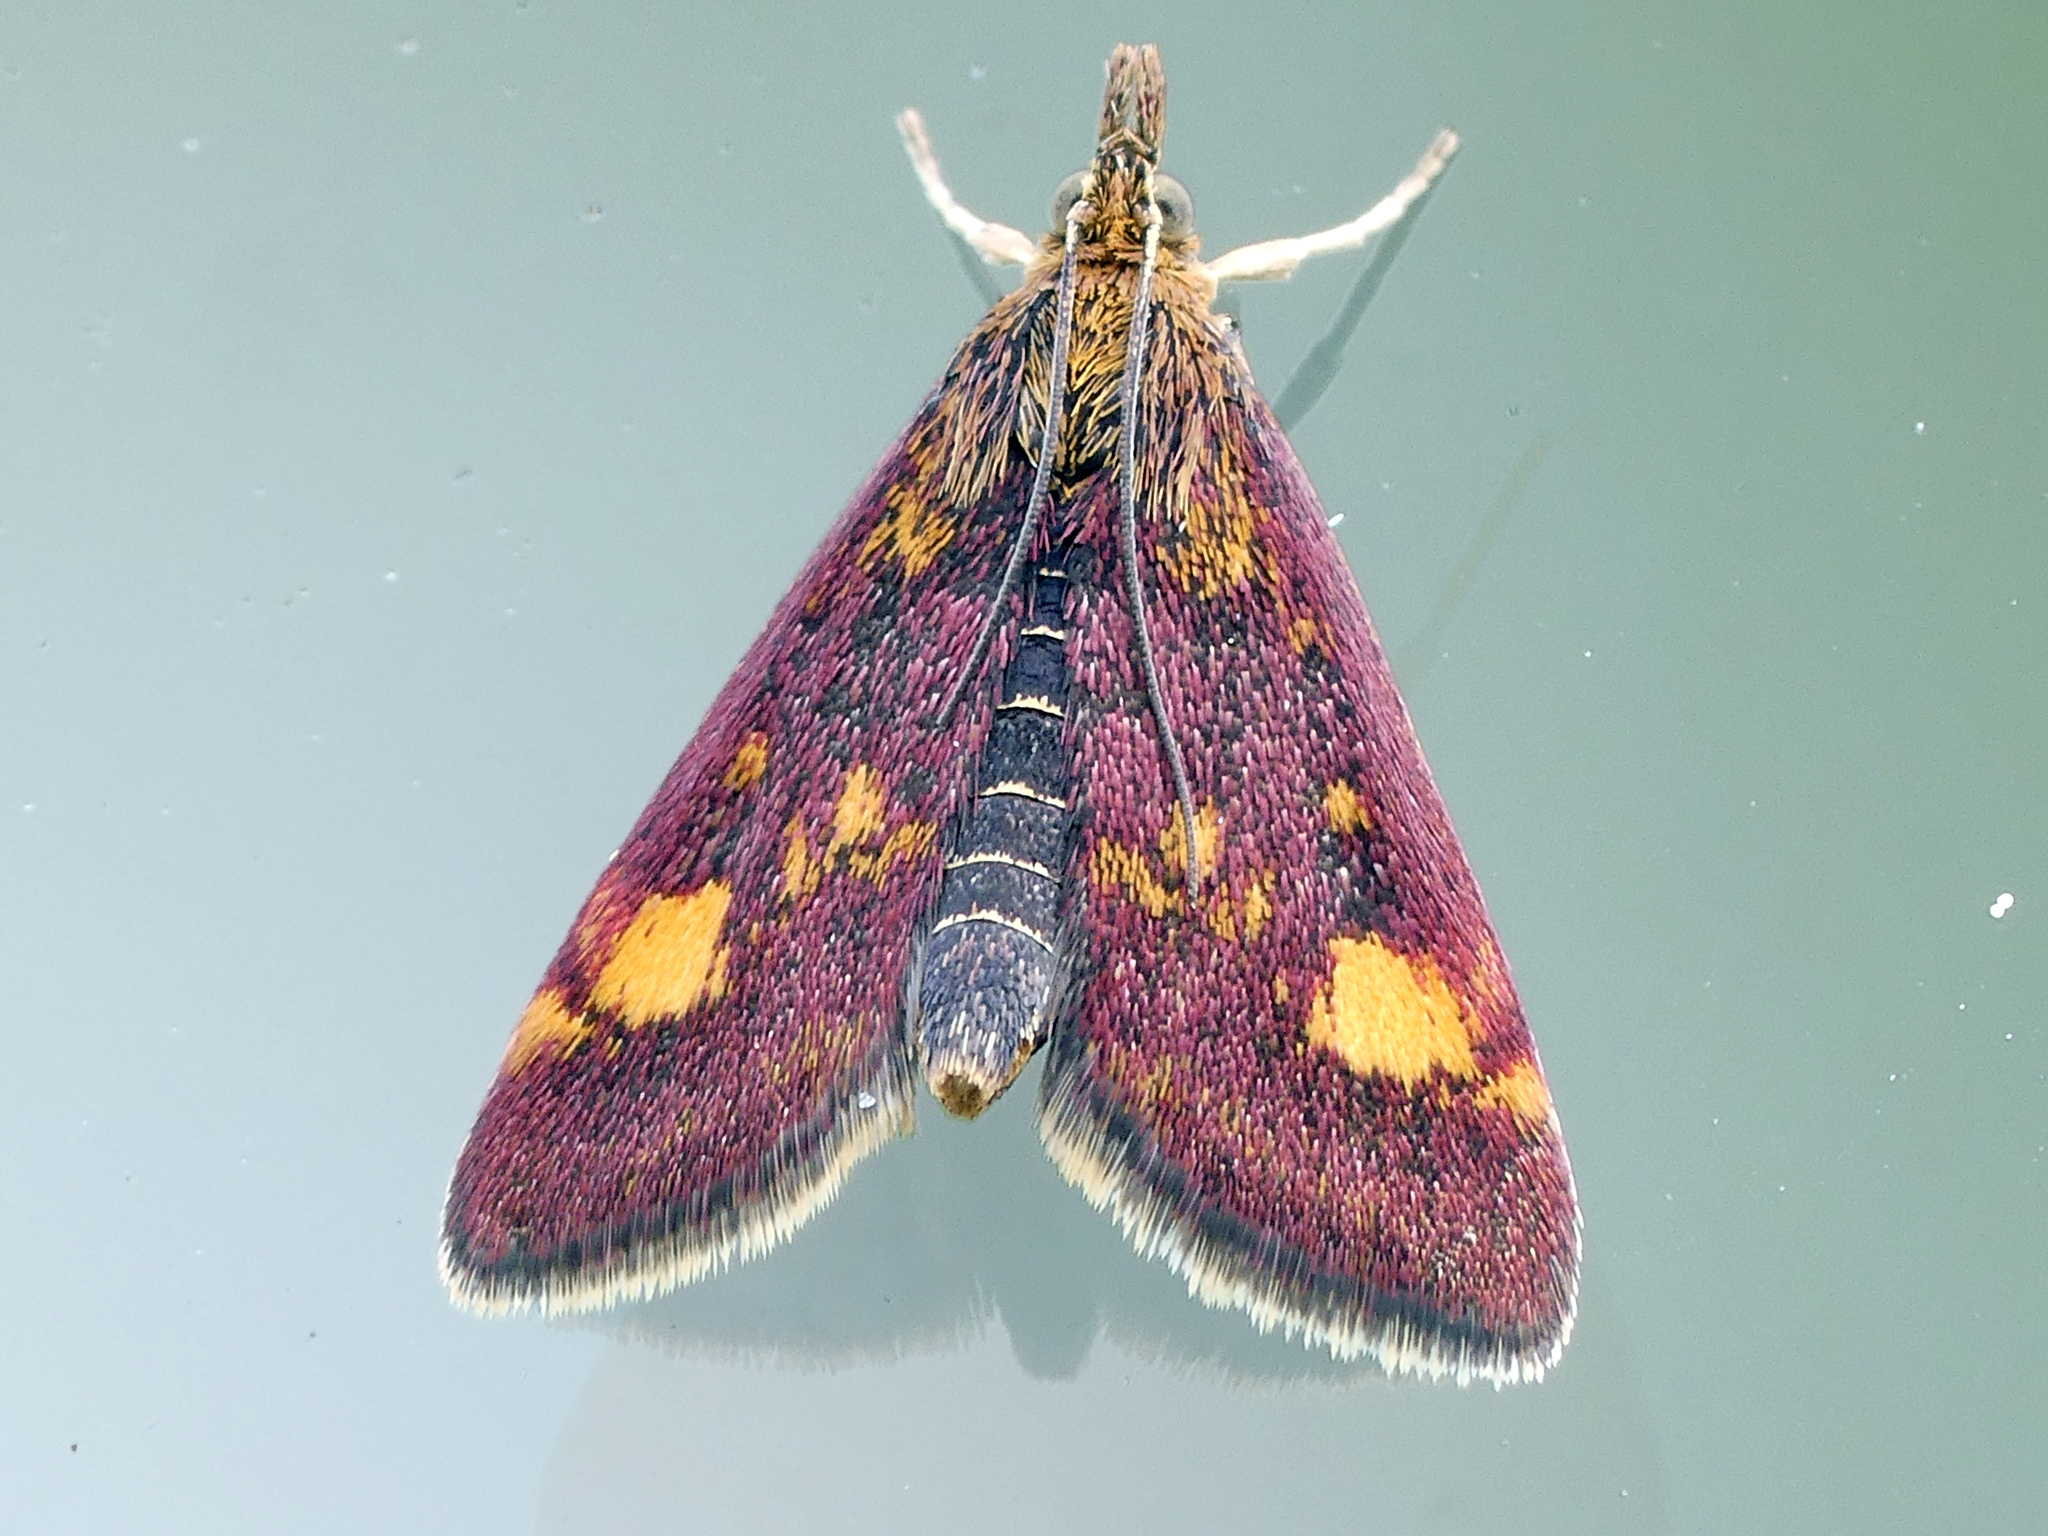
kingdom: Animalia
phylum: Arthropoda
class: Insecta
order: Lepidoptera
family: Crambidae
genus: Pyrausta
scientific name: Pyrausta aurata
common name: Small purple & gold
